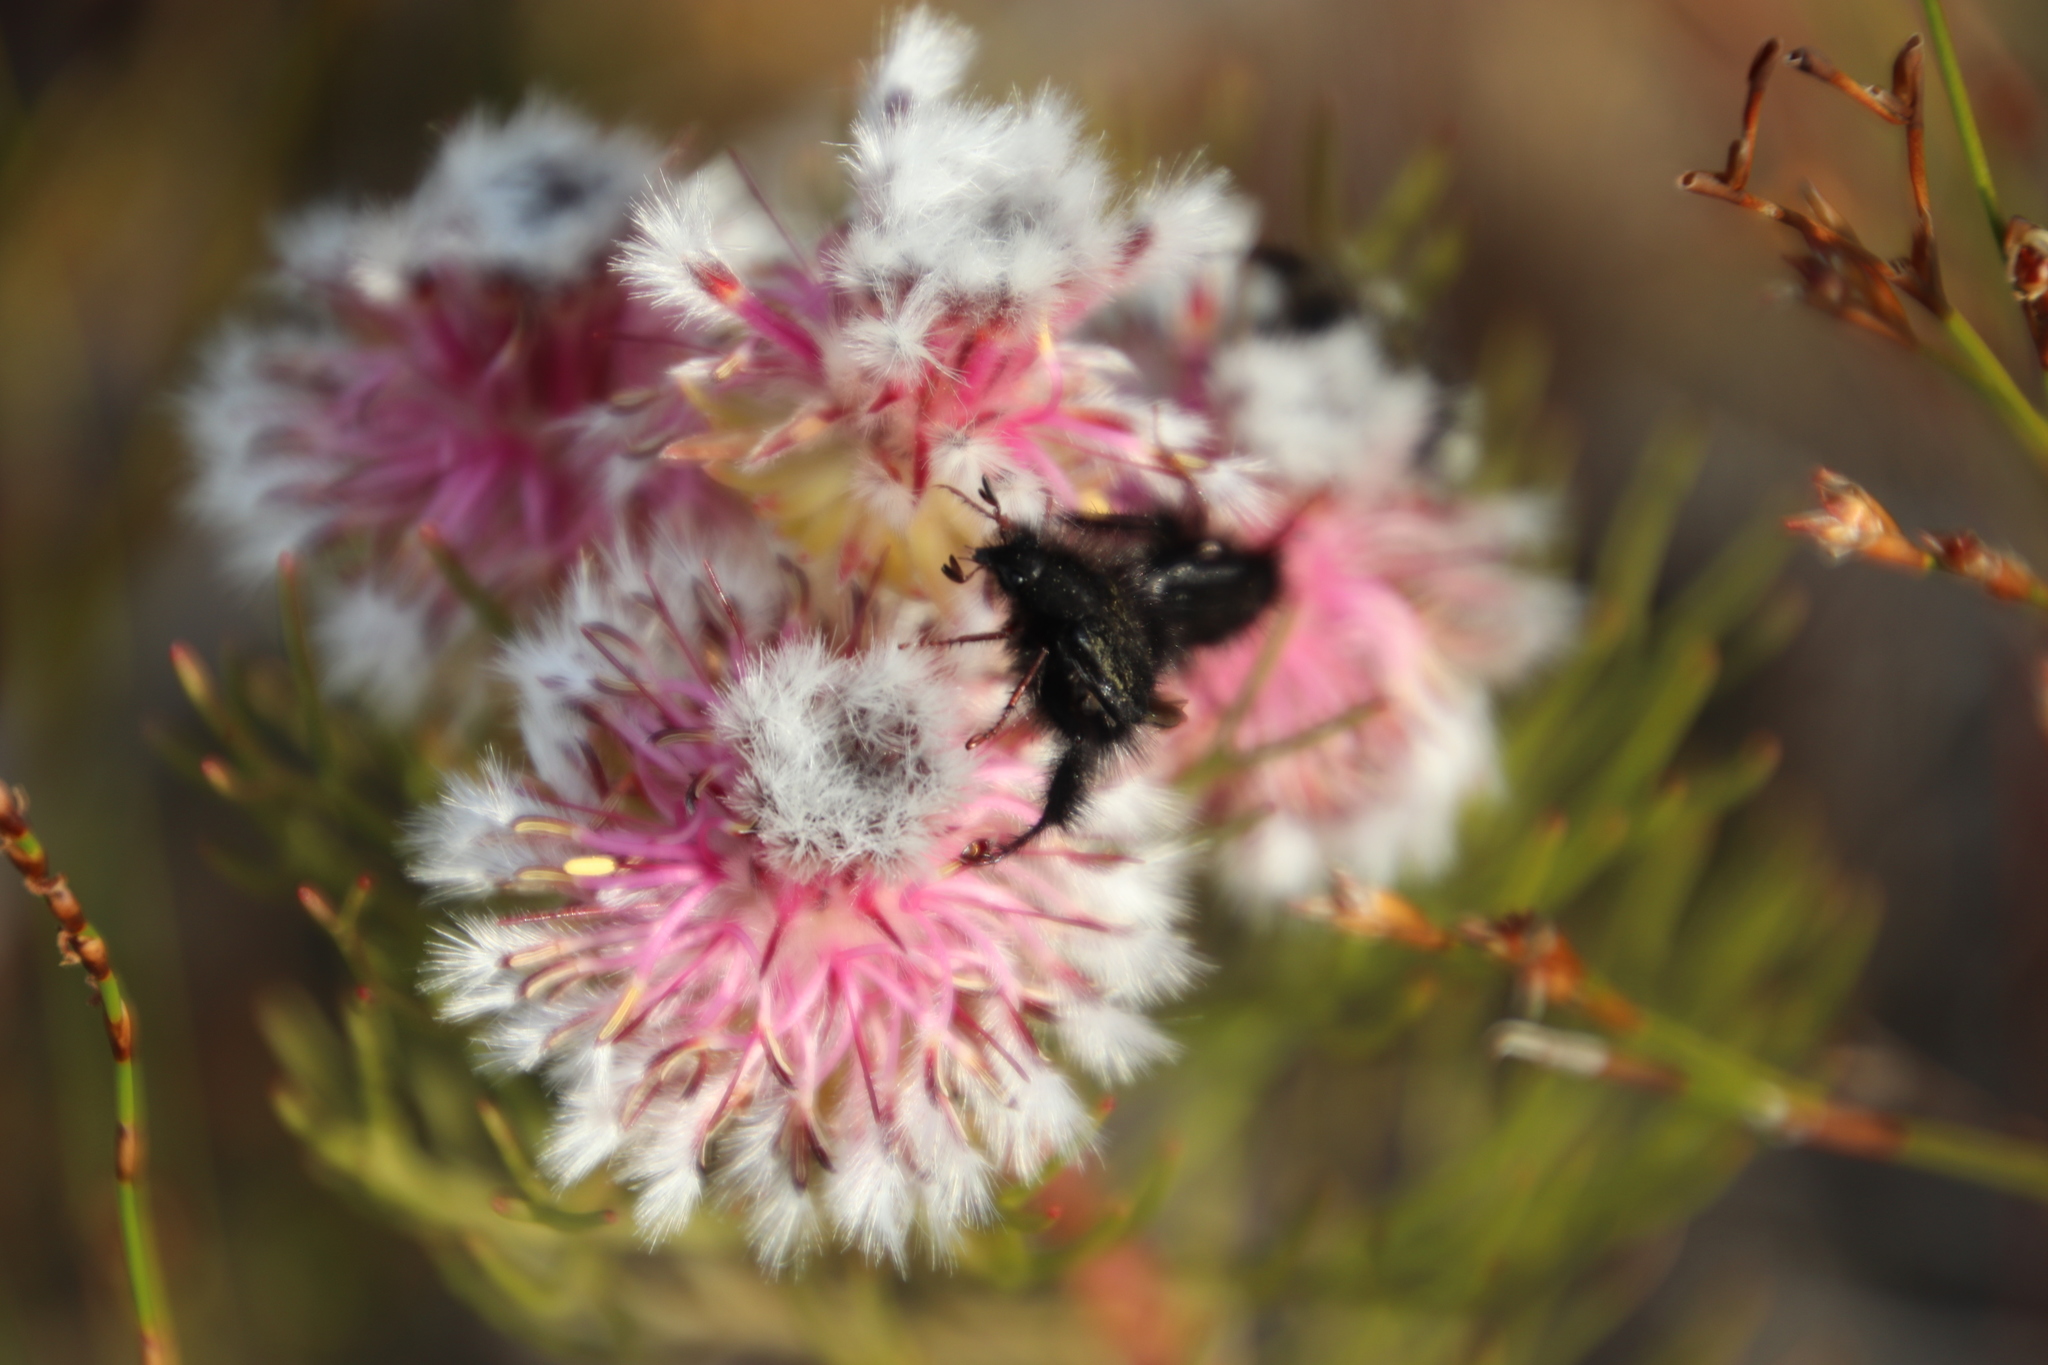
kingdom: Plantae
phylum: Tracheophyta
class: Magnoliopsida
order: Proteales
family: Proteaceae
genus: Serruria
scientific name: Serruria phylicoides
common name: Bearded spiderhead
